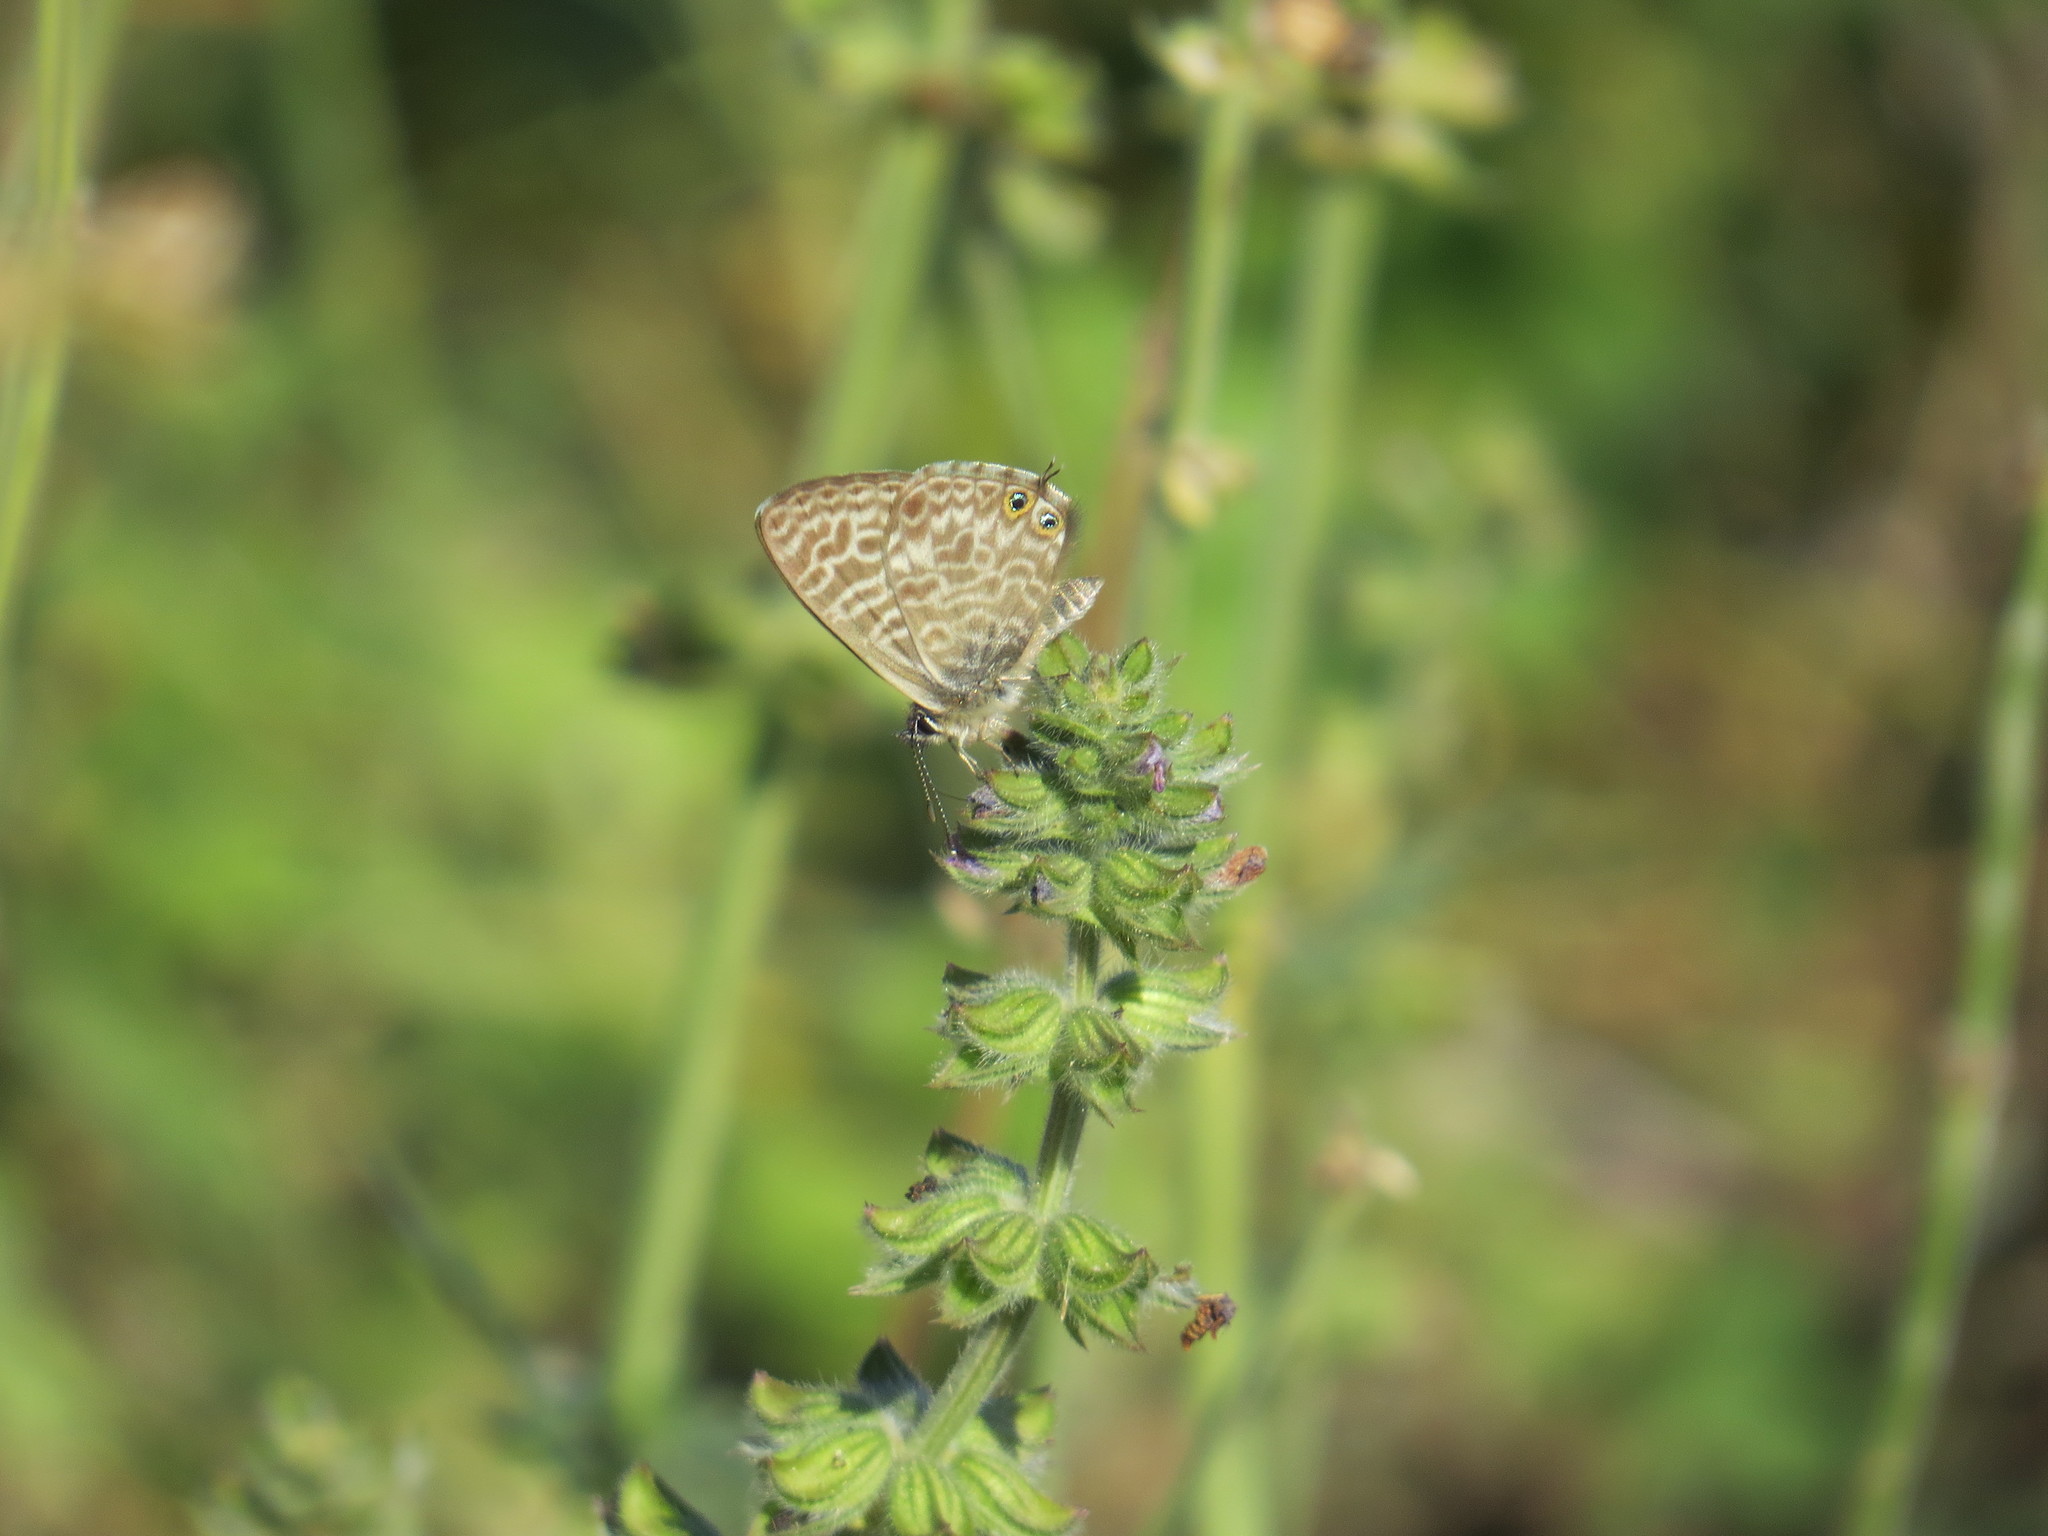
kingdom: Animalia
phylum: Arthropoda
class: Insecta
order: Lepidoptera
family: Lycaenidae
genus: Leptotes
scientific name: Leptotes pirithous
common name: Lang's short-tailed blue
